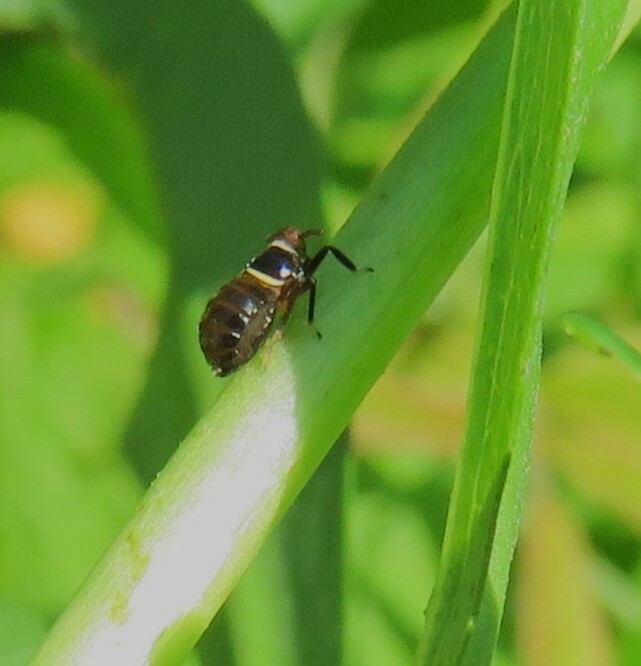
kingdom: Animalia
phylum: Arthropoda
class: Insecta
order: Hemiptera
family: Delphacidae
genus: Pissonotus
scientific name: Pissonotus basalis
